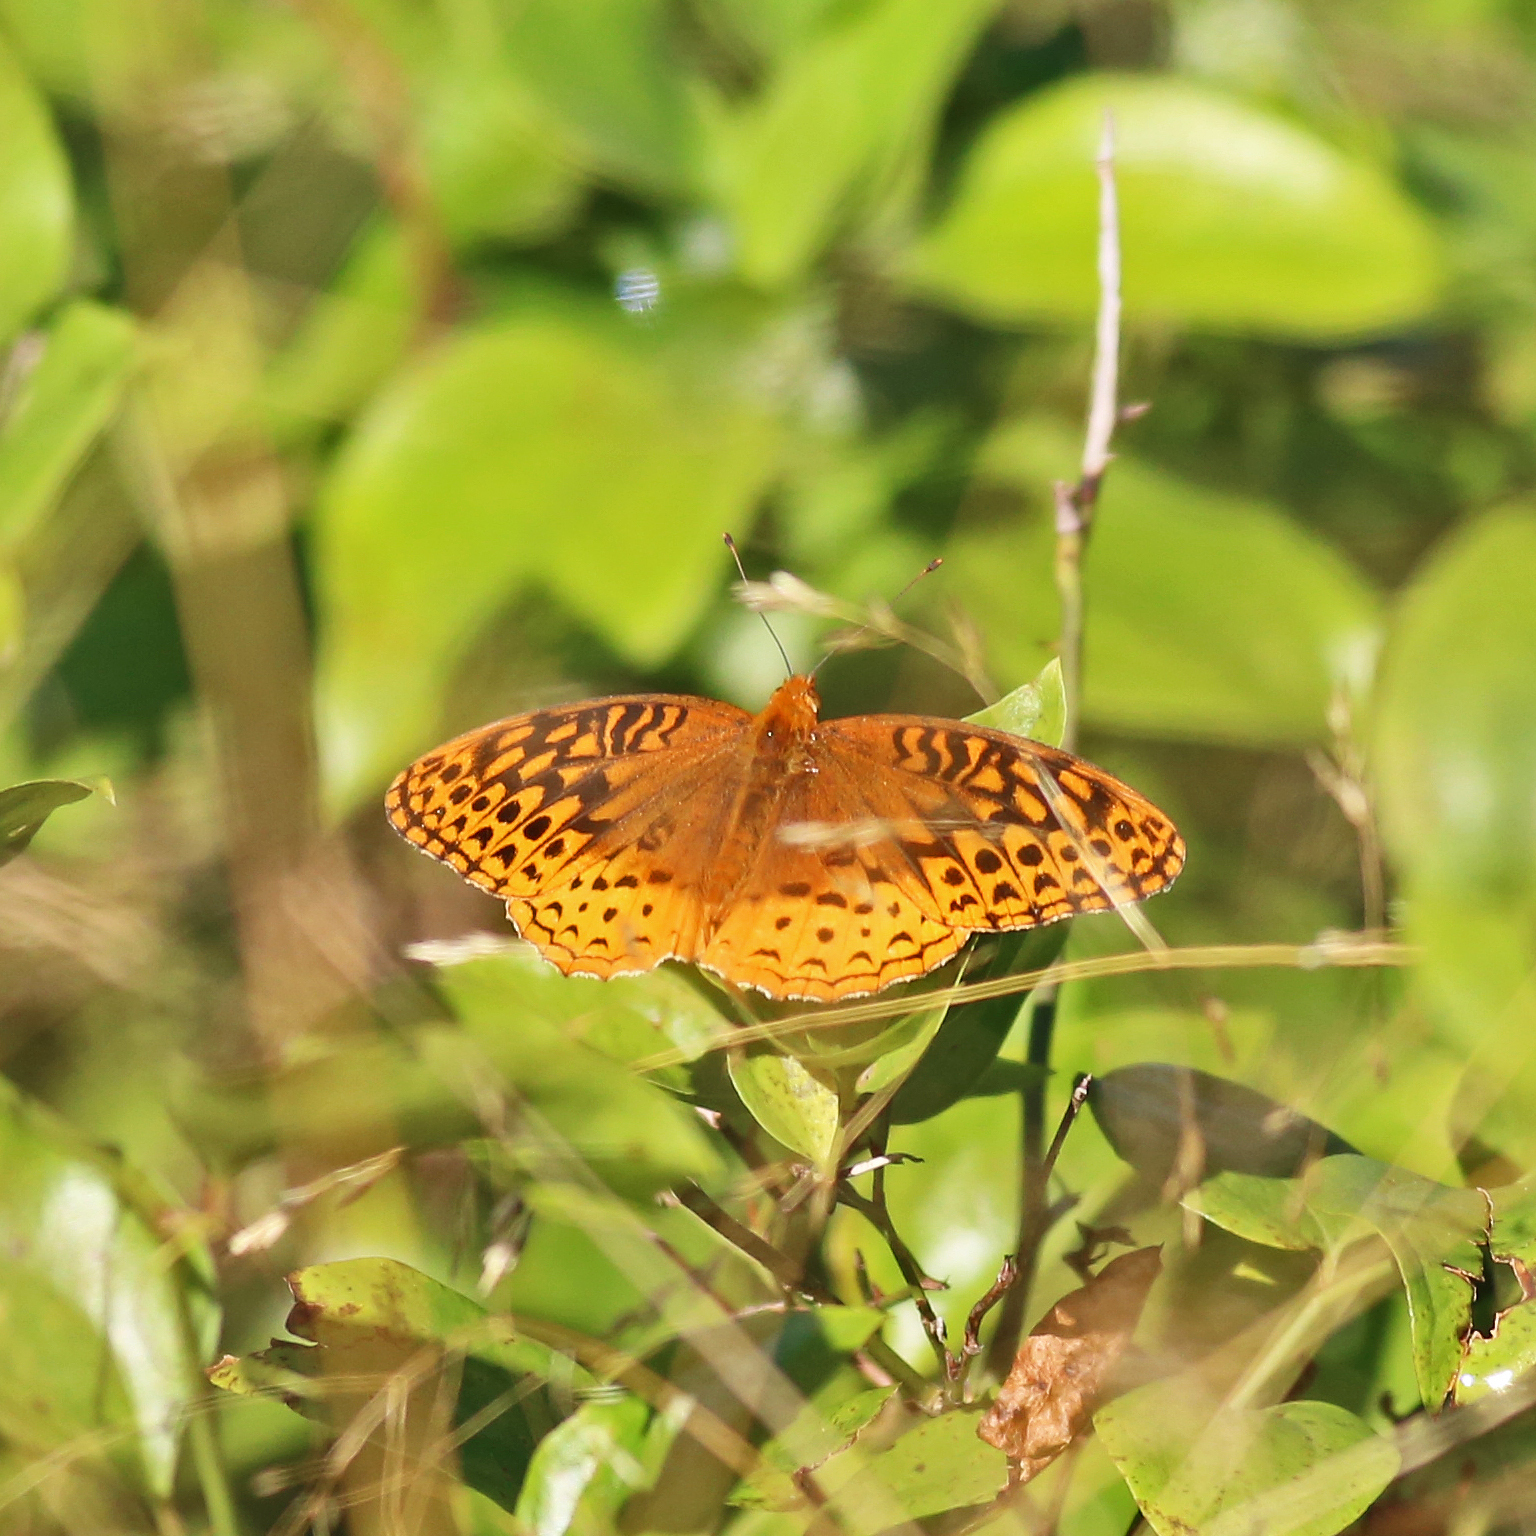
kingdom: Animalia
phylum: Arthropoda
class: Insecta
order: Lepidoptera
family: Nymphalidae
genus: Speyeria
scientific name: Speyeria cybele
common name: Great spangled fritillary
